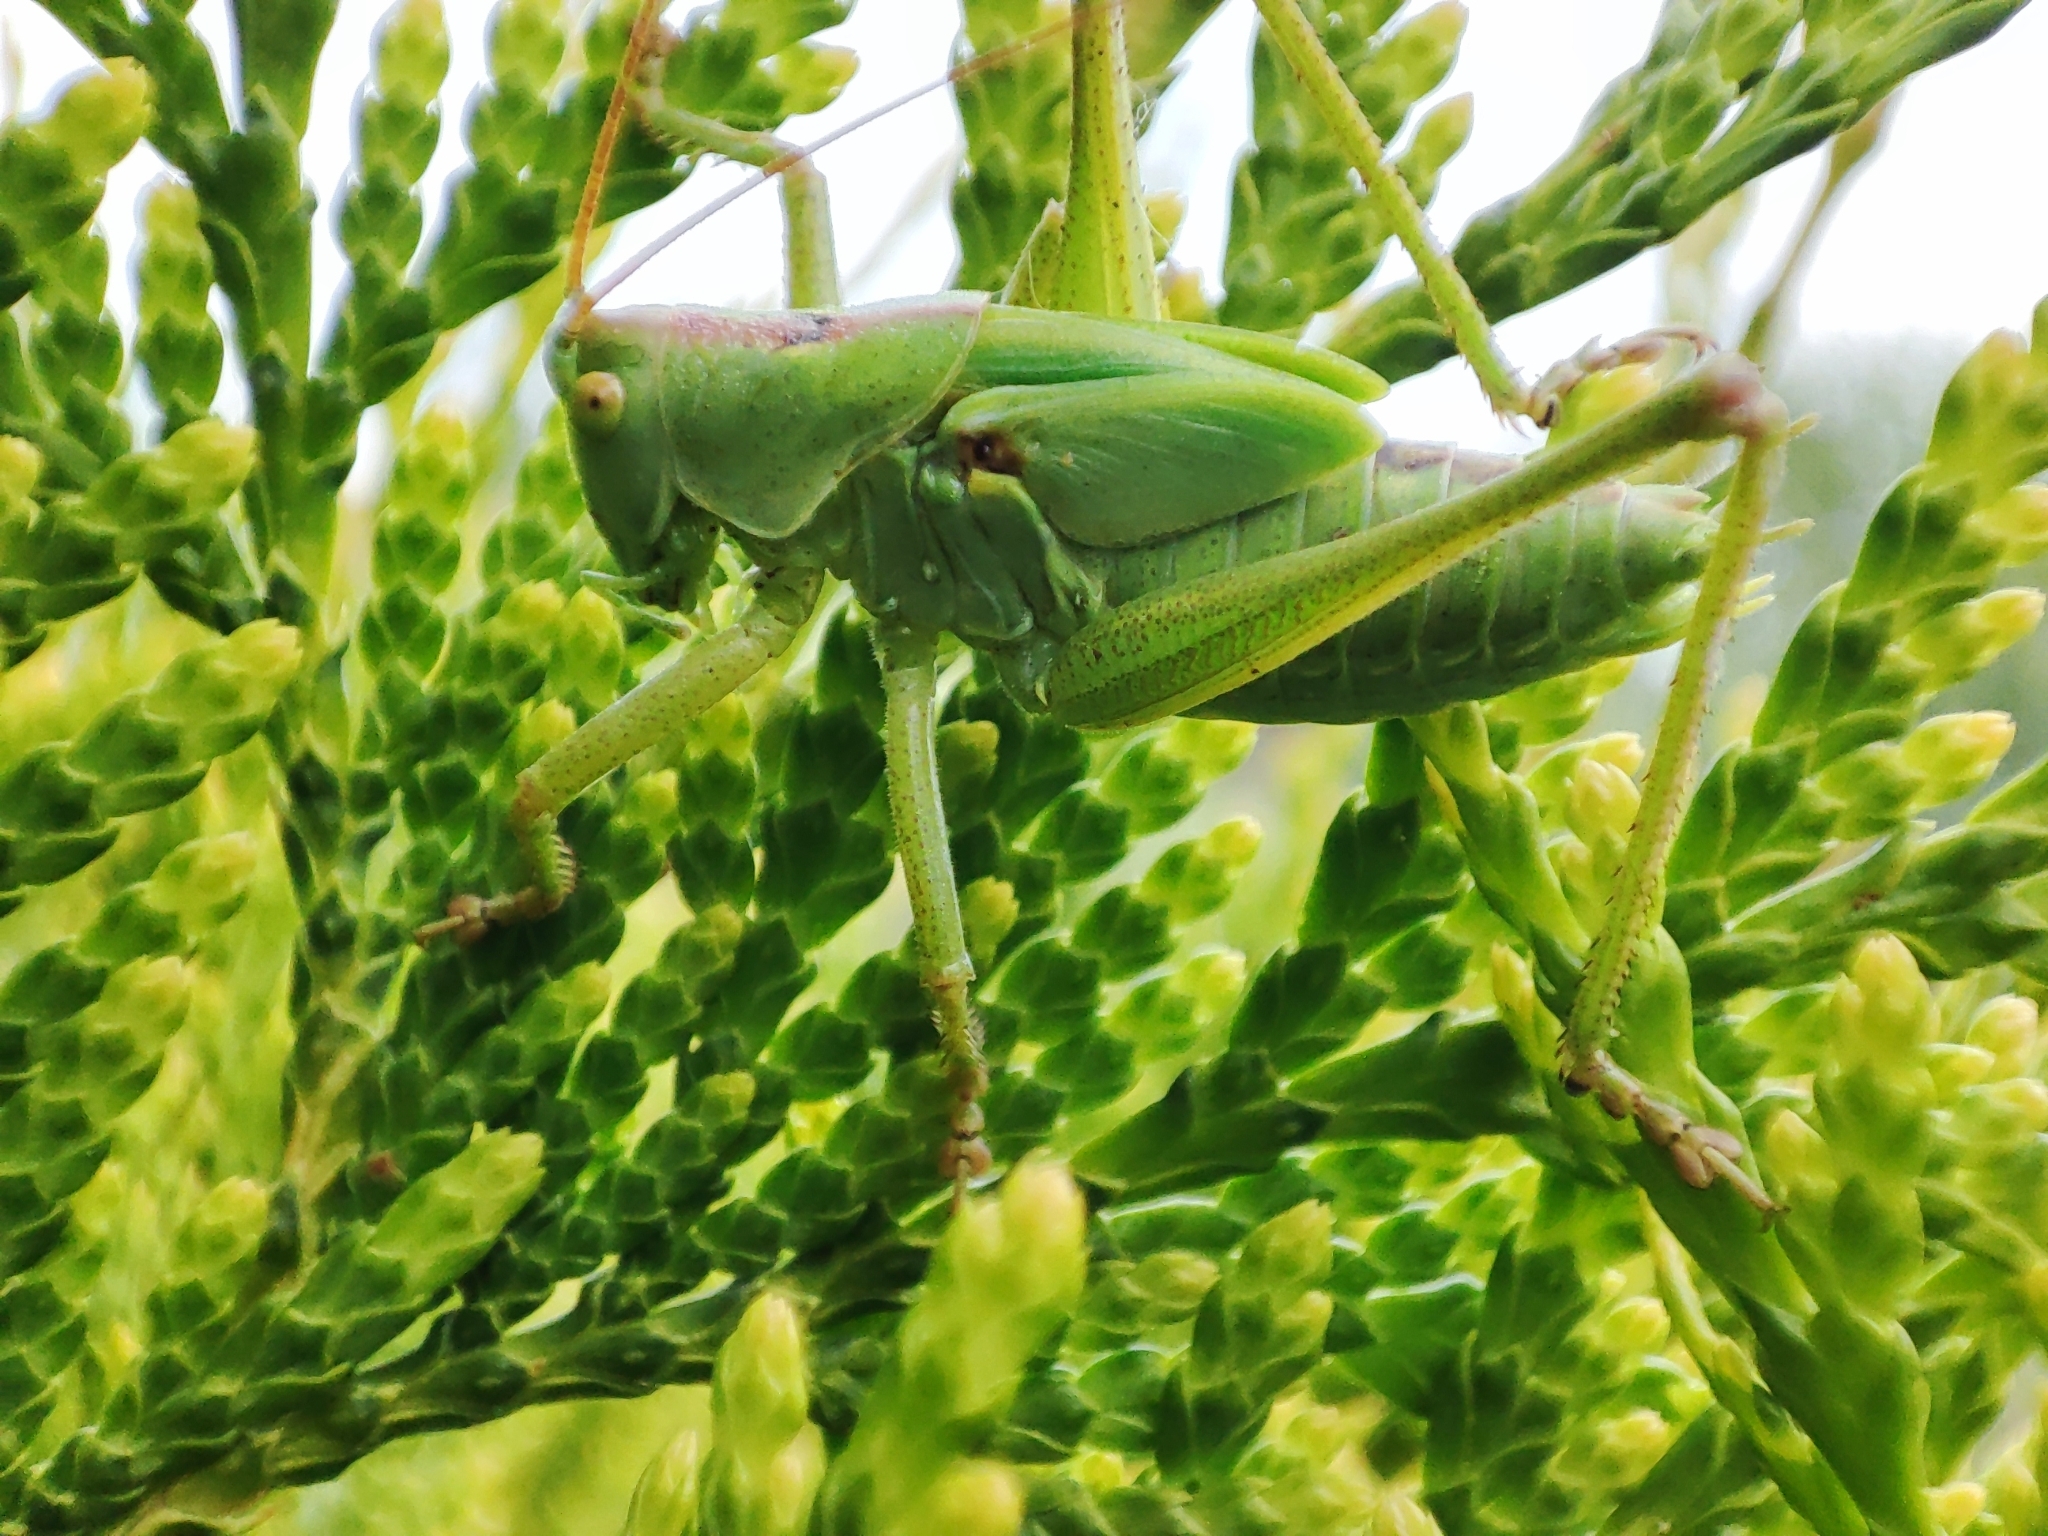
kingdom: Animalia
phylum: Arthropoda
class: Insecta
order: Orthoptera
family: Tettigoniidae
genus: Tettigonia
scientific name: Tettigonia viridissima
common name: Great green bush-cricket
